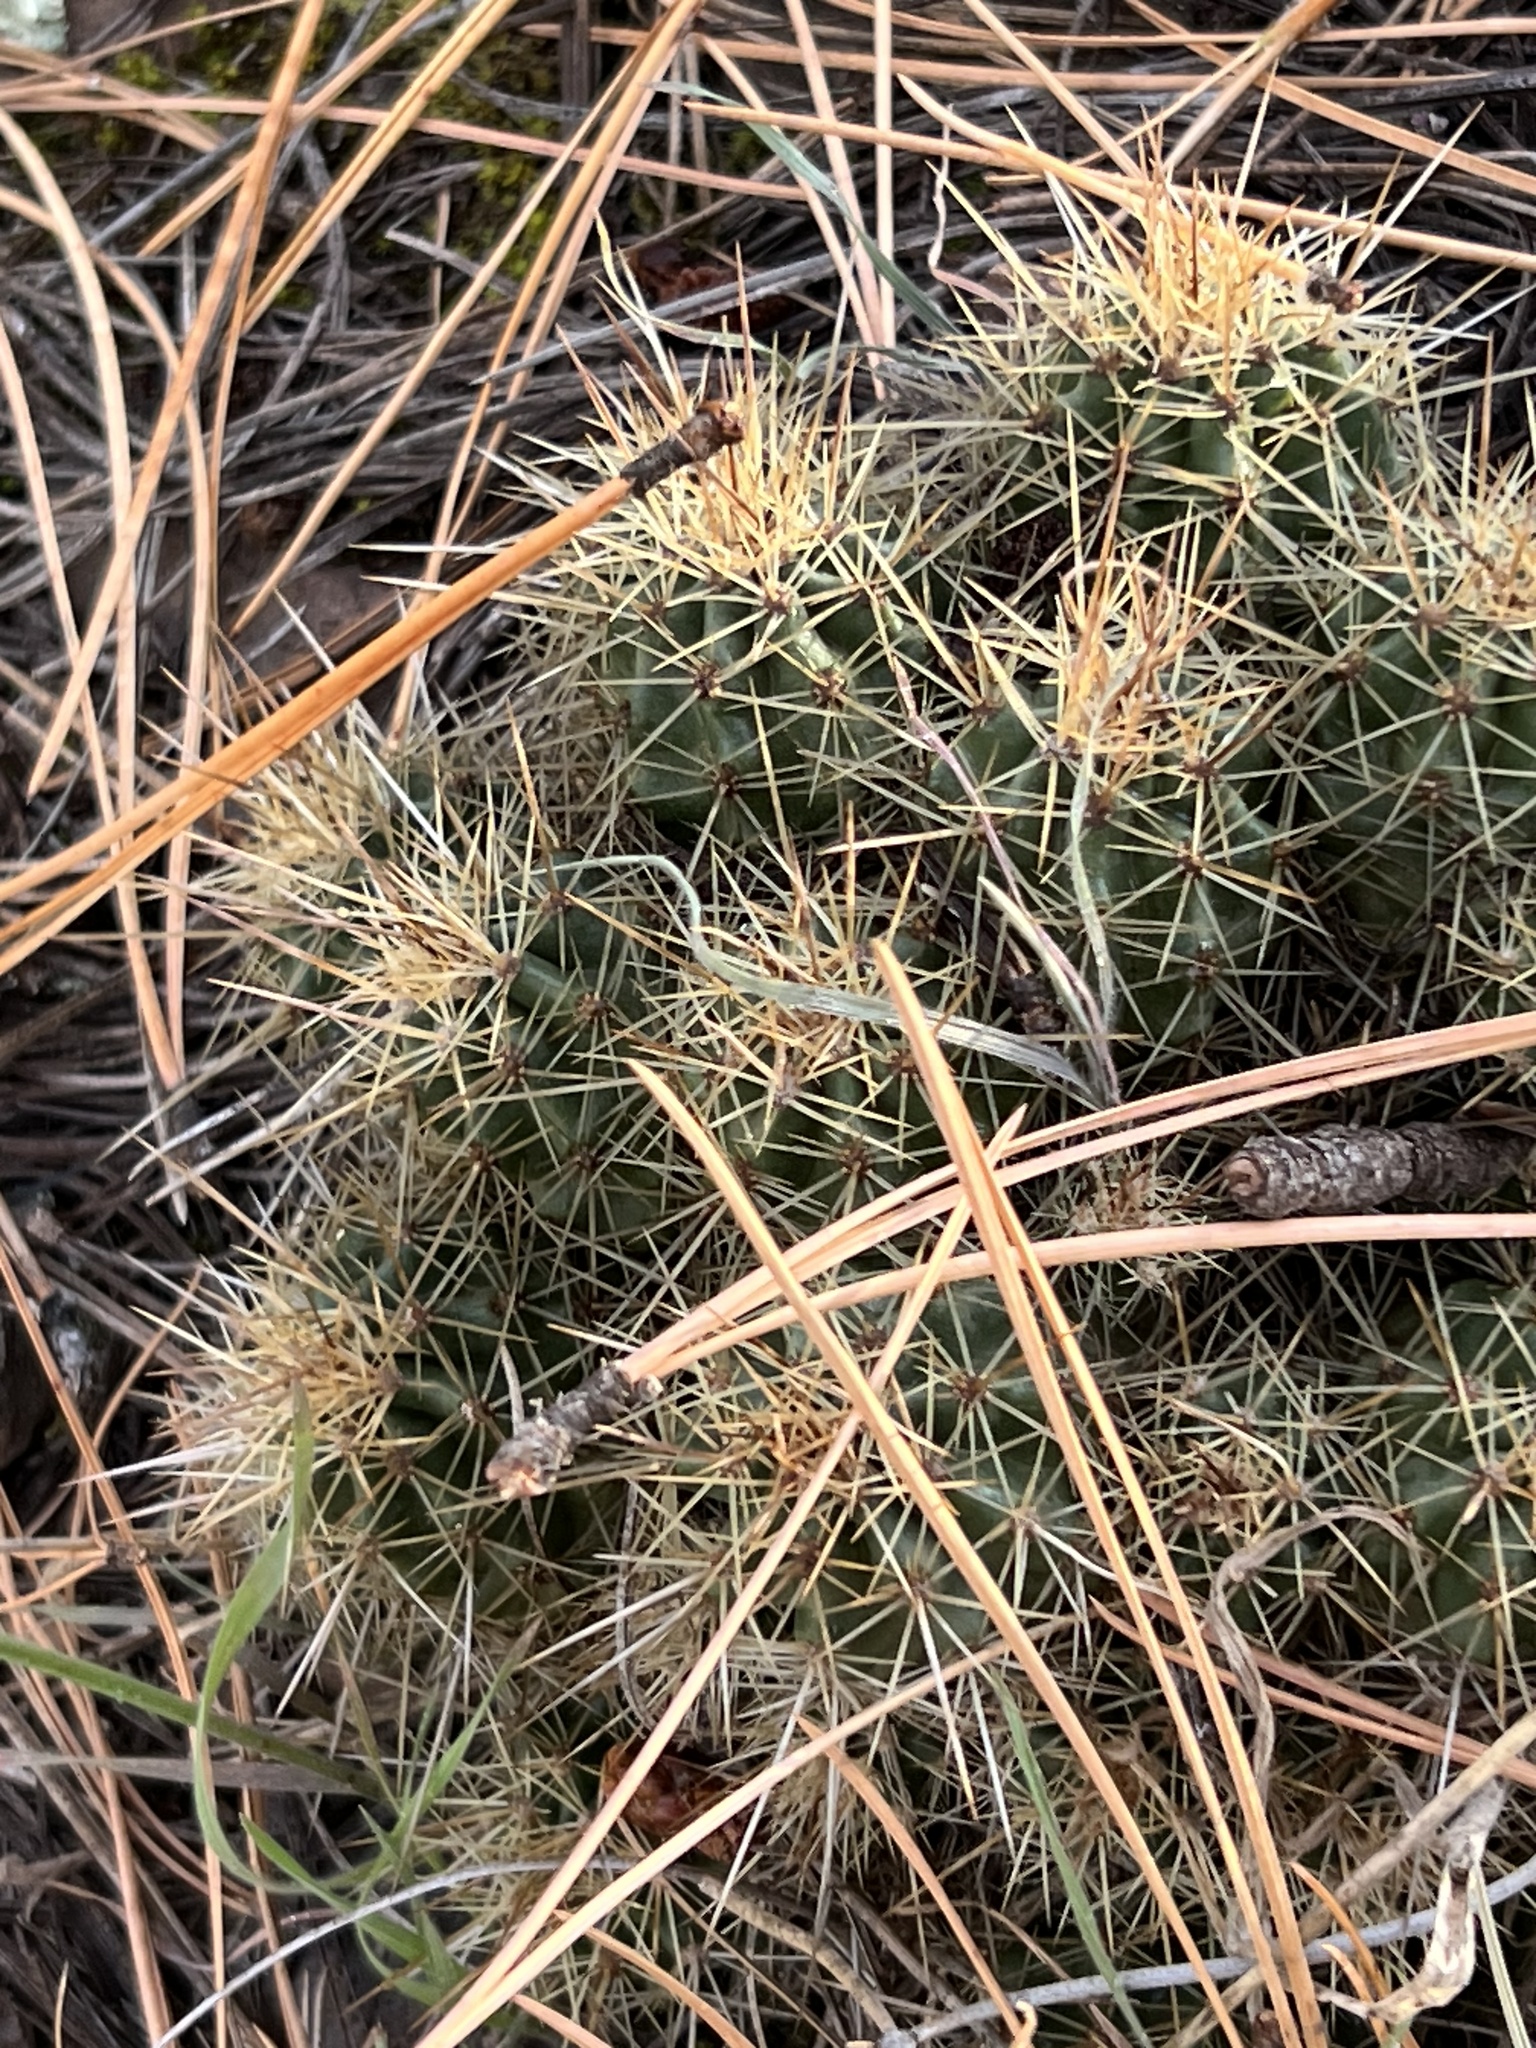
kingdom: Plantae
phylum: Tracheophyta
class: Magnoliopsida
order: Caryophyllales
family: Cactaceae
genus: Echinocereus
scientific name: Echinocereus bakeri
